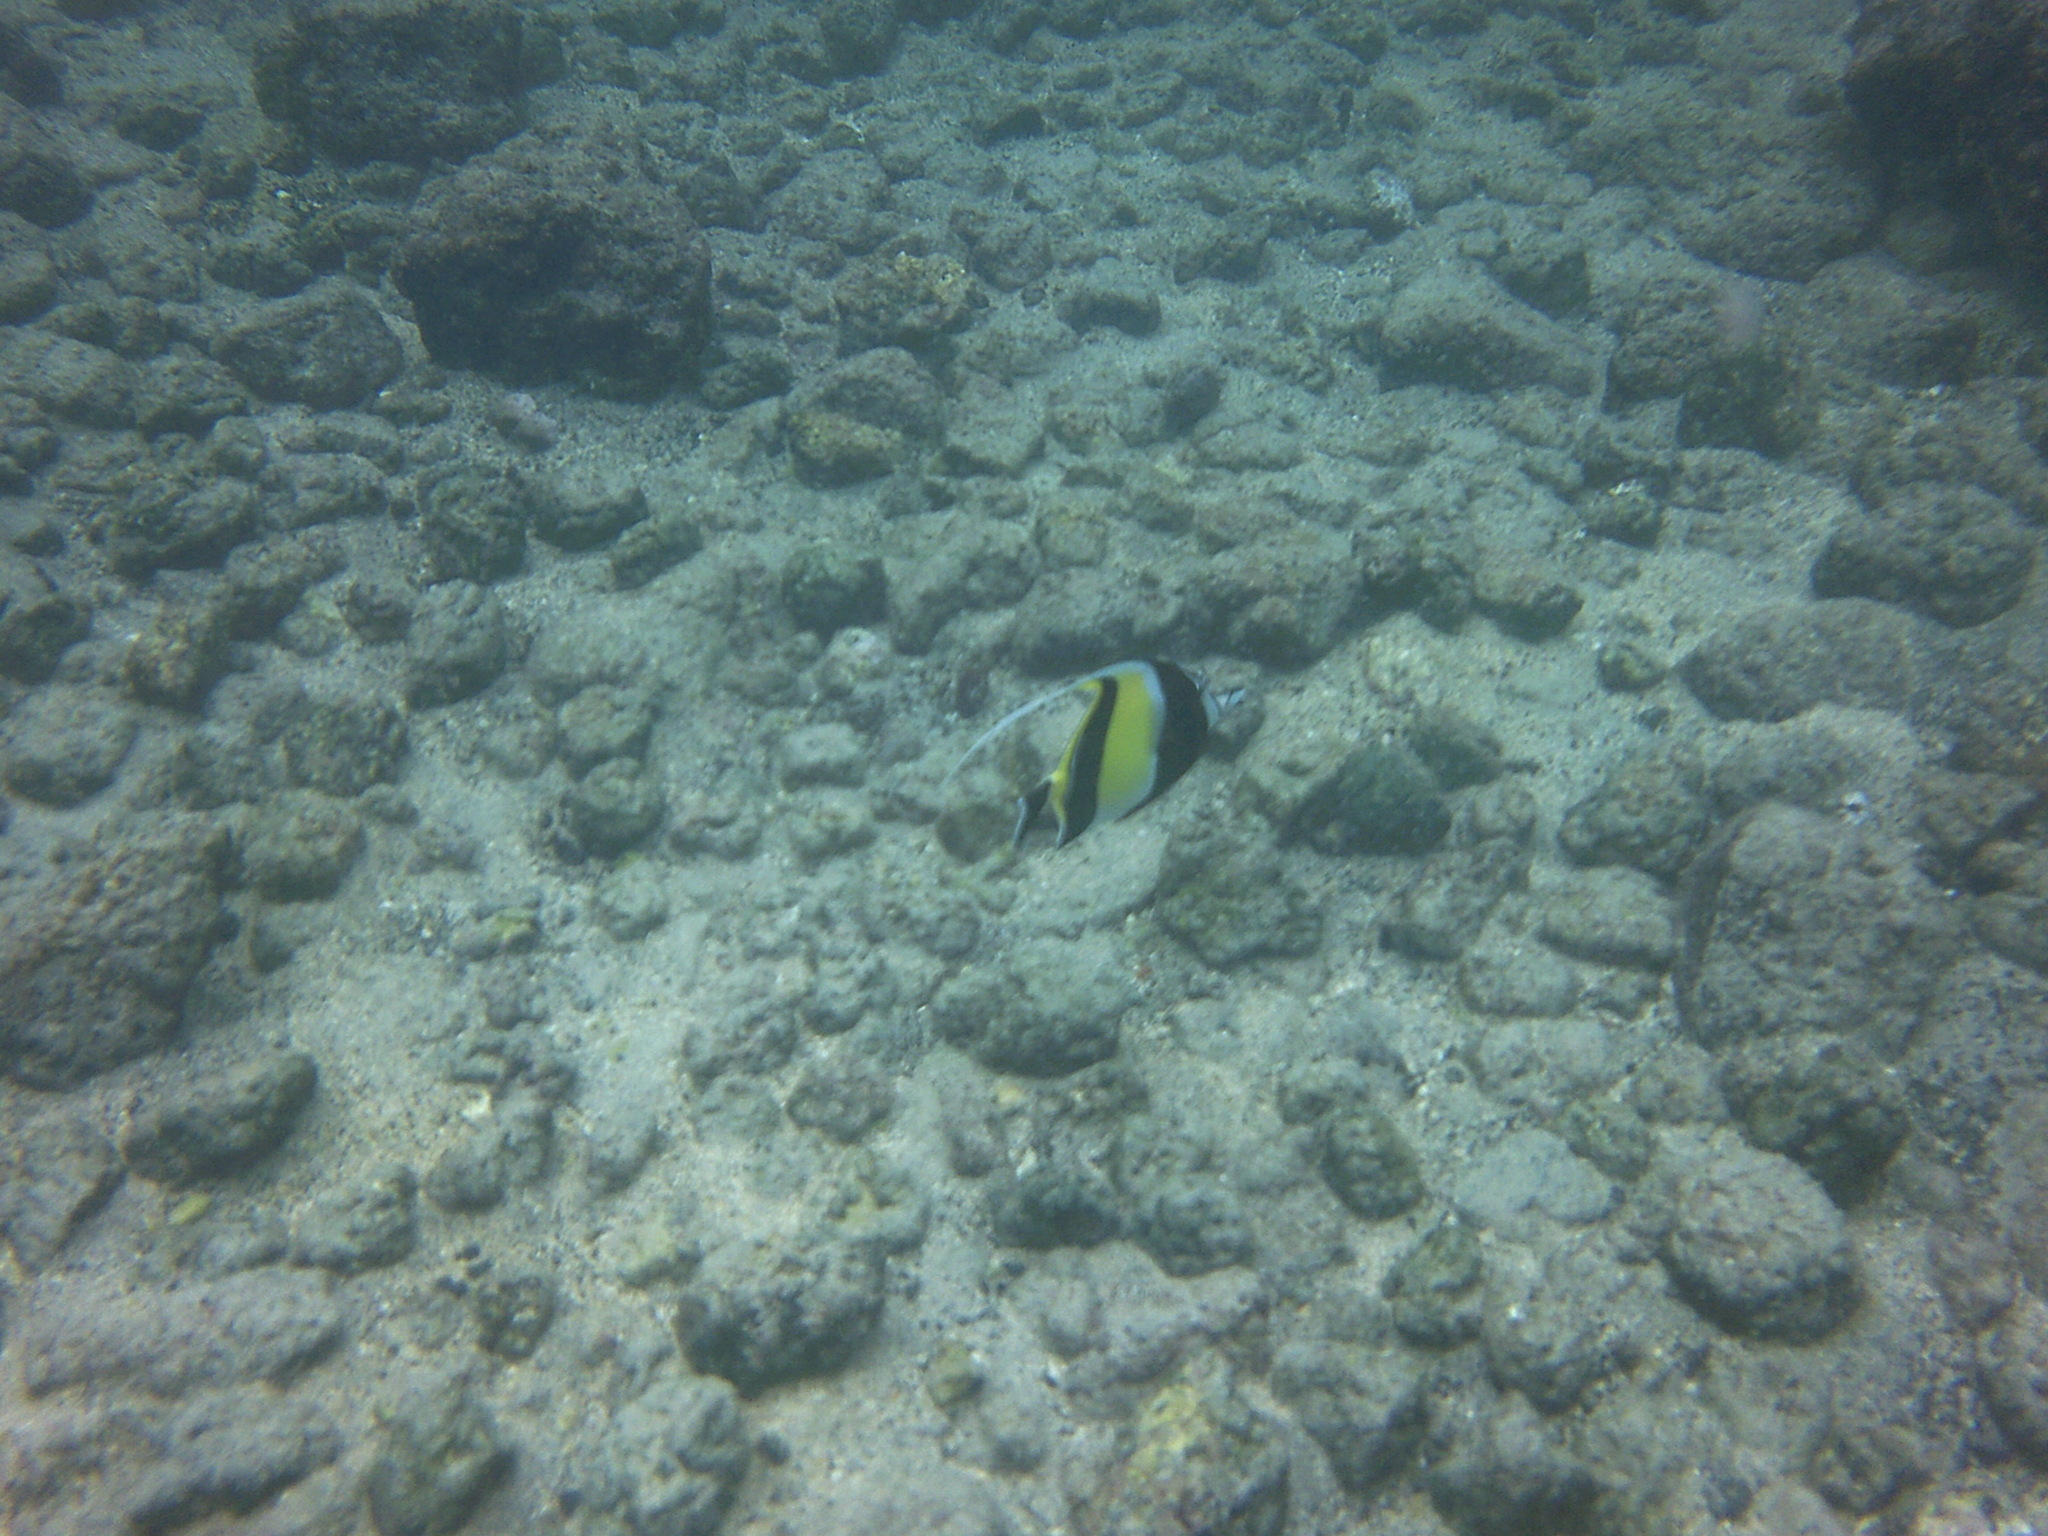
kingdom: Animalia
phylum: Chordata
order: Perciformes
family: Zanclidae
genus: Zanclus
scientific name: Zanclus cornutus
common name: Moorish idol
